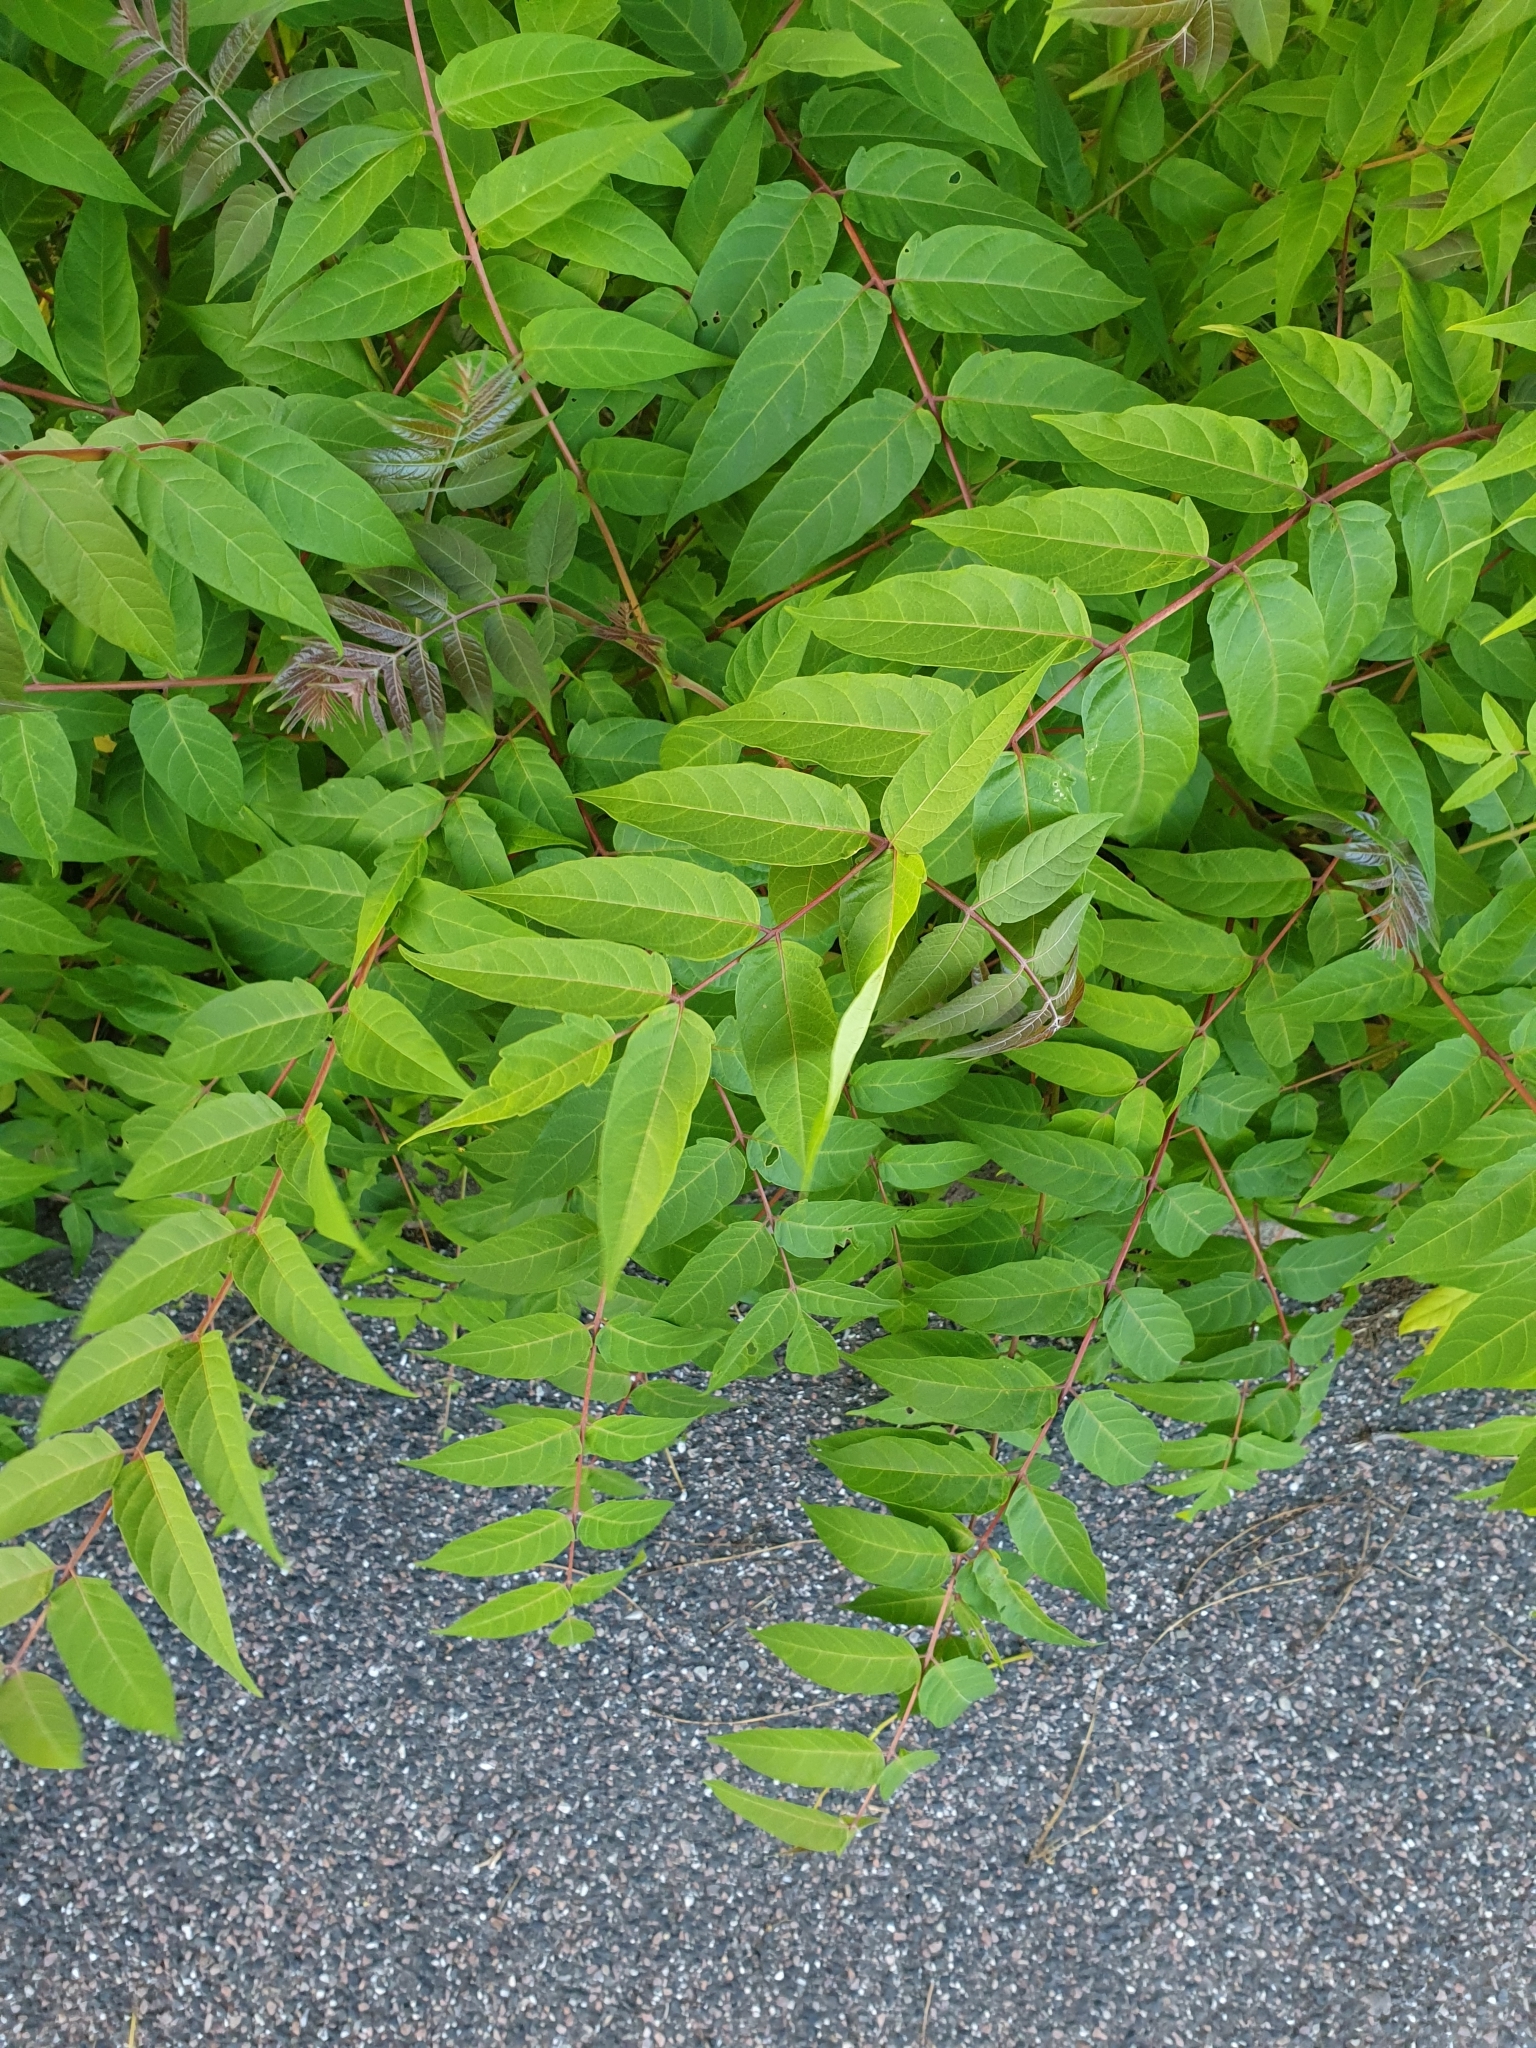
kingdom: Plantae
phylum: Tracheophyta
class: Magnoliopsida
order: Sapindales
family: Simaroubaceae
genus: Ailanthus
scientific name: Ailanthus altissima
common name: Tree-of-heaven
